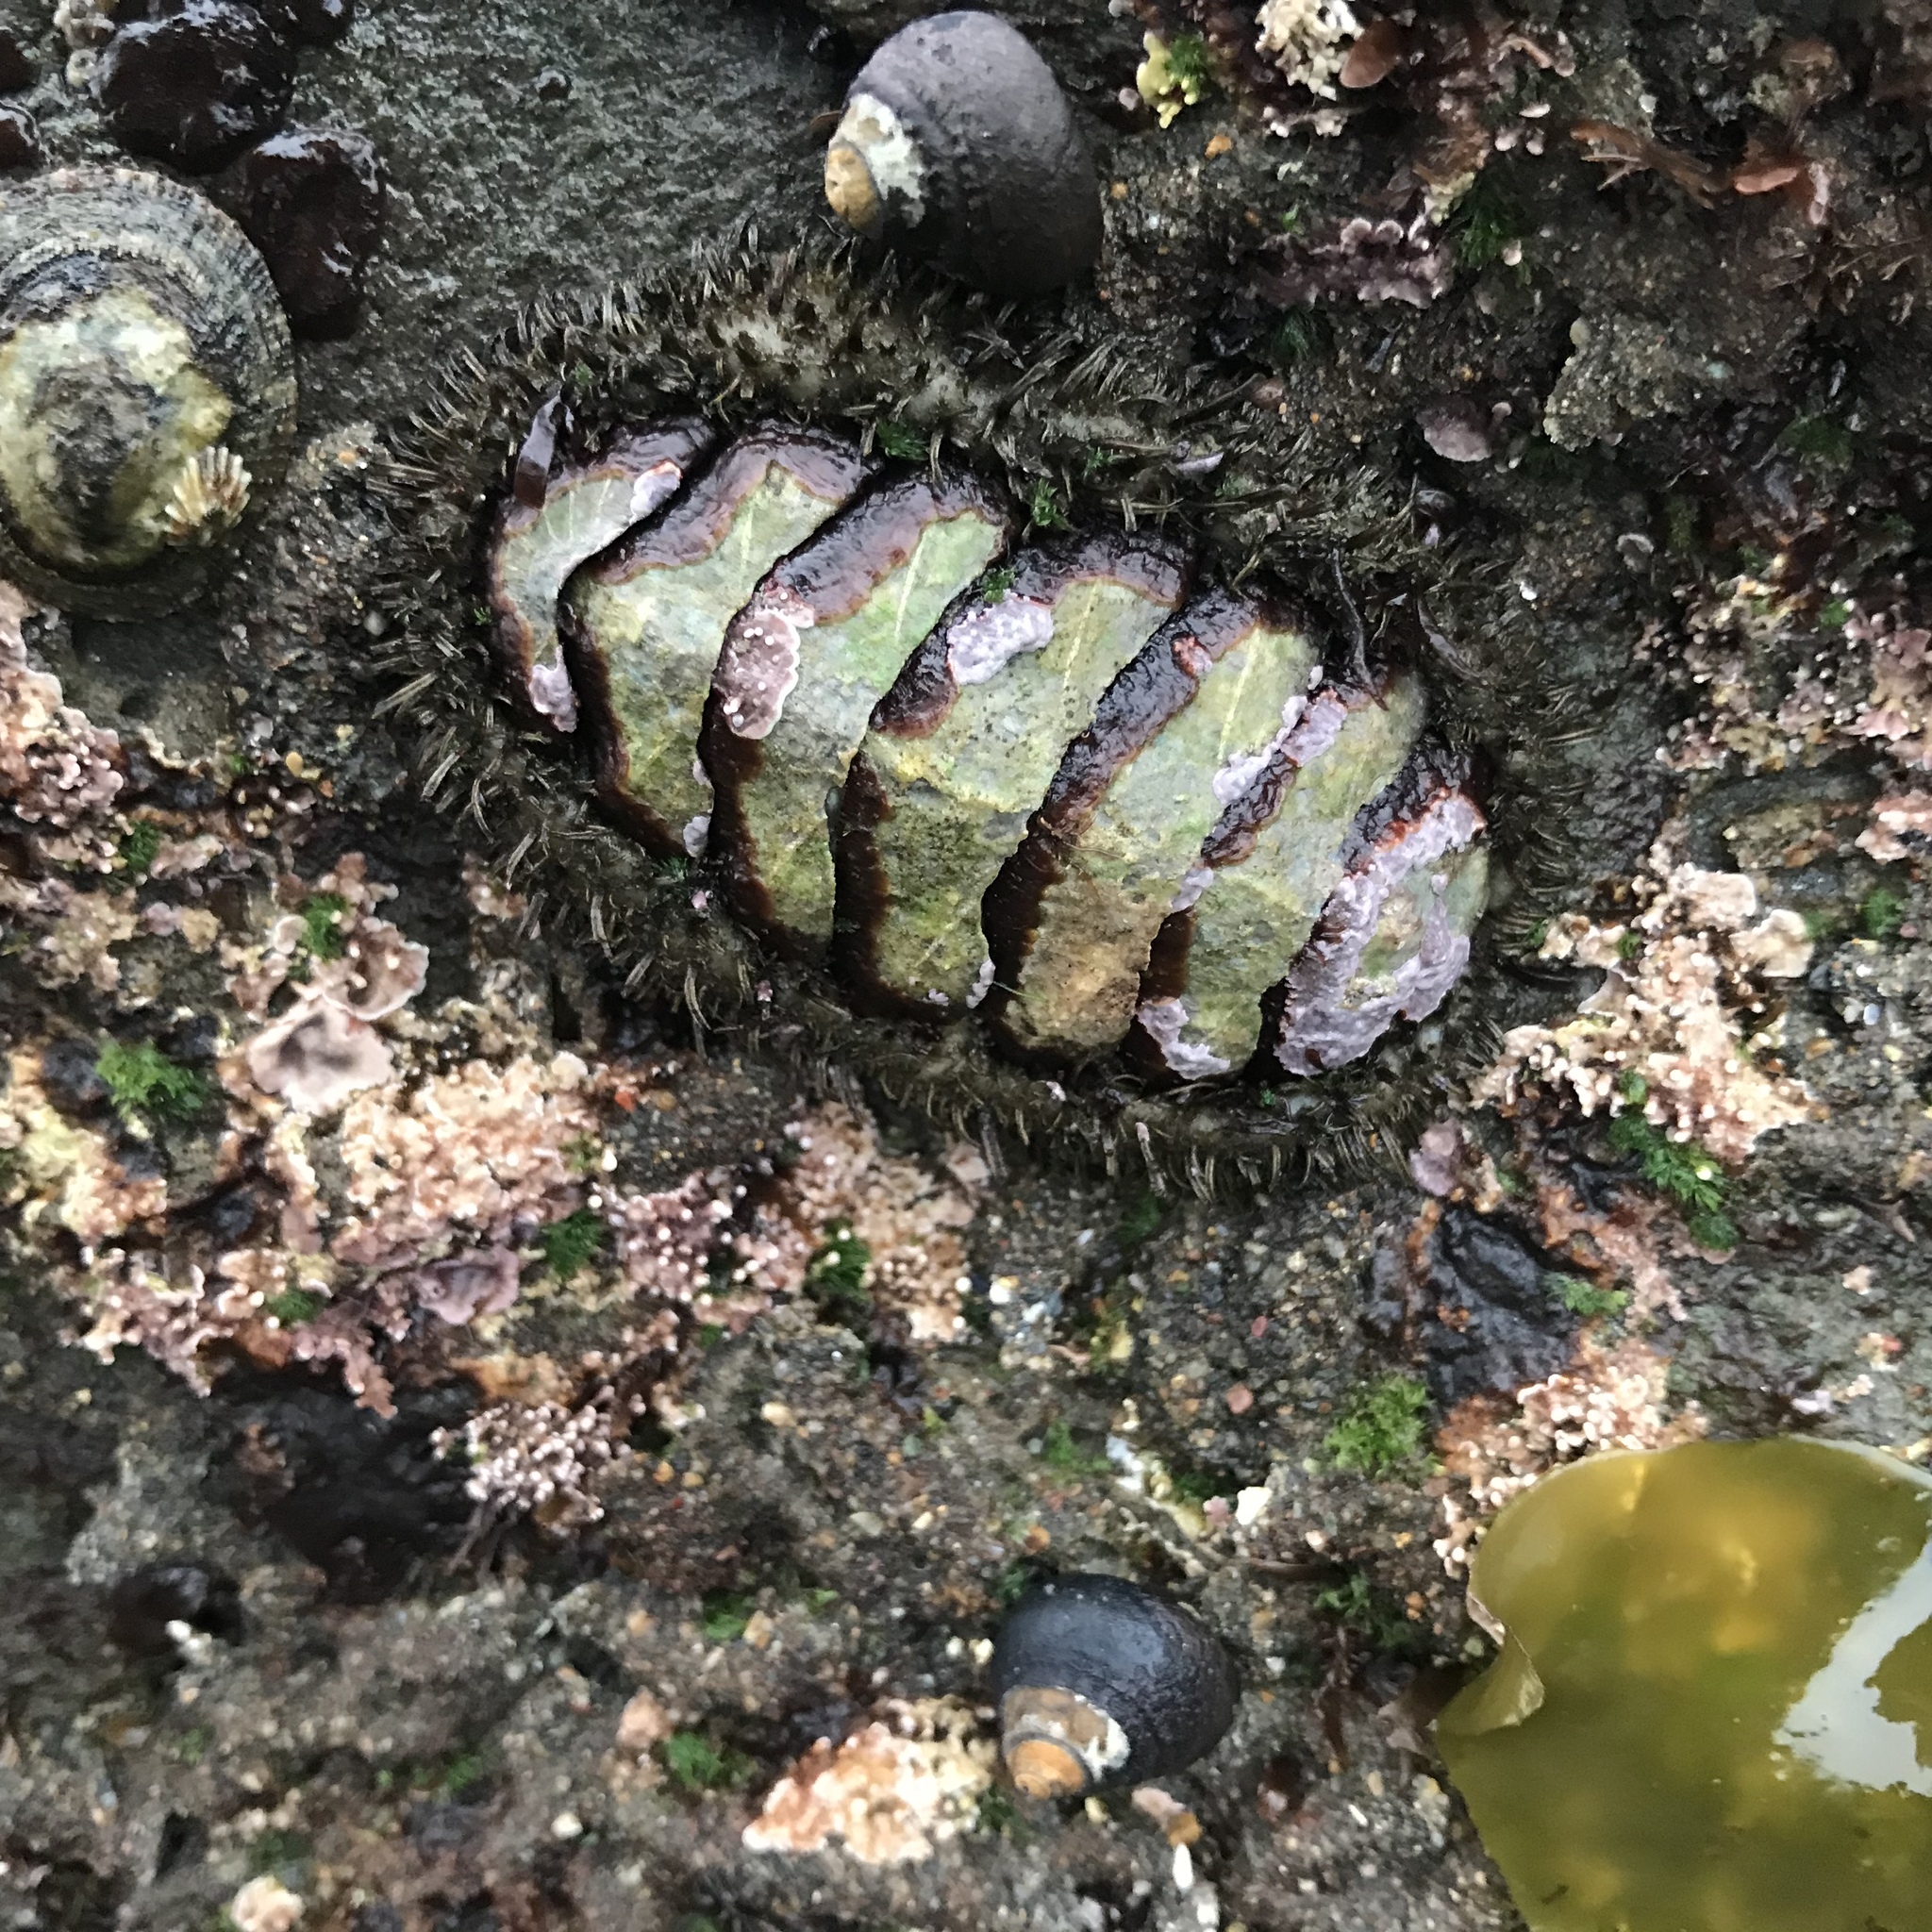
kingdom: Animalia
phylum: Mollusca
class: Polyplacophora
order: Chitonida
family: Mopaliidae
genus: Mopalia
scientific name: Mopalia muscosa
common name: Mossy chiton
